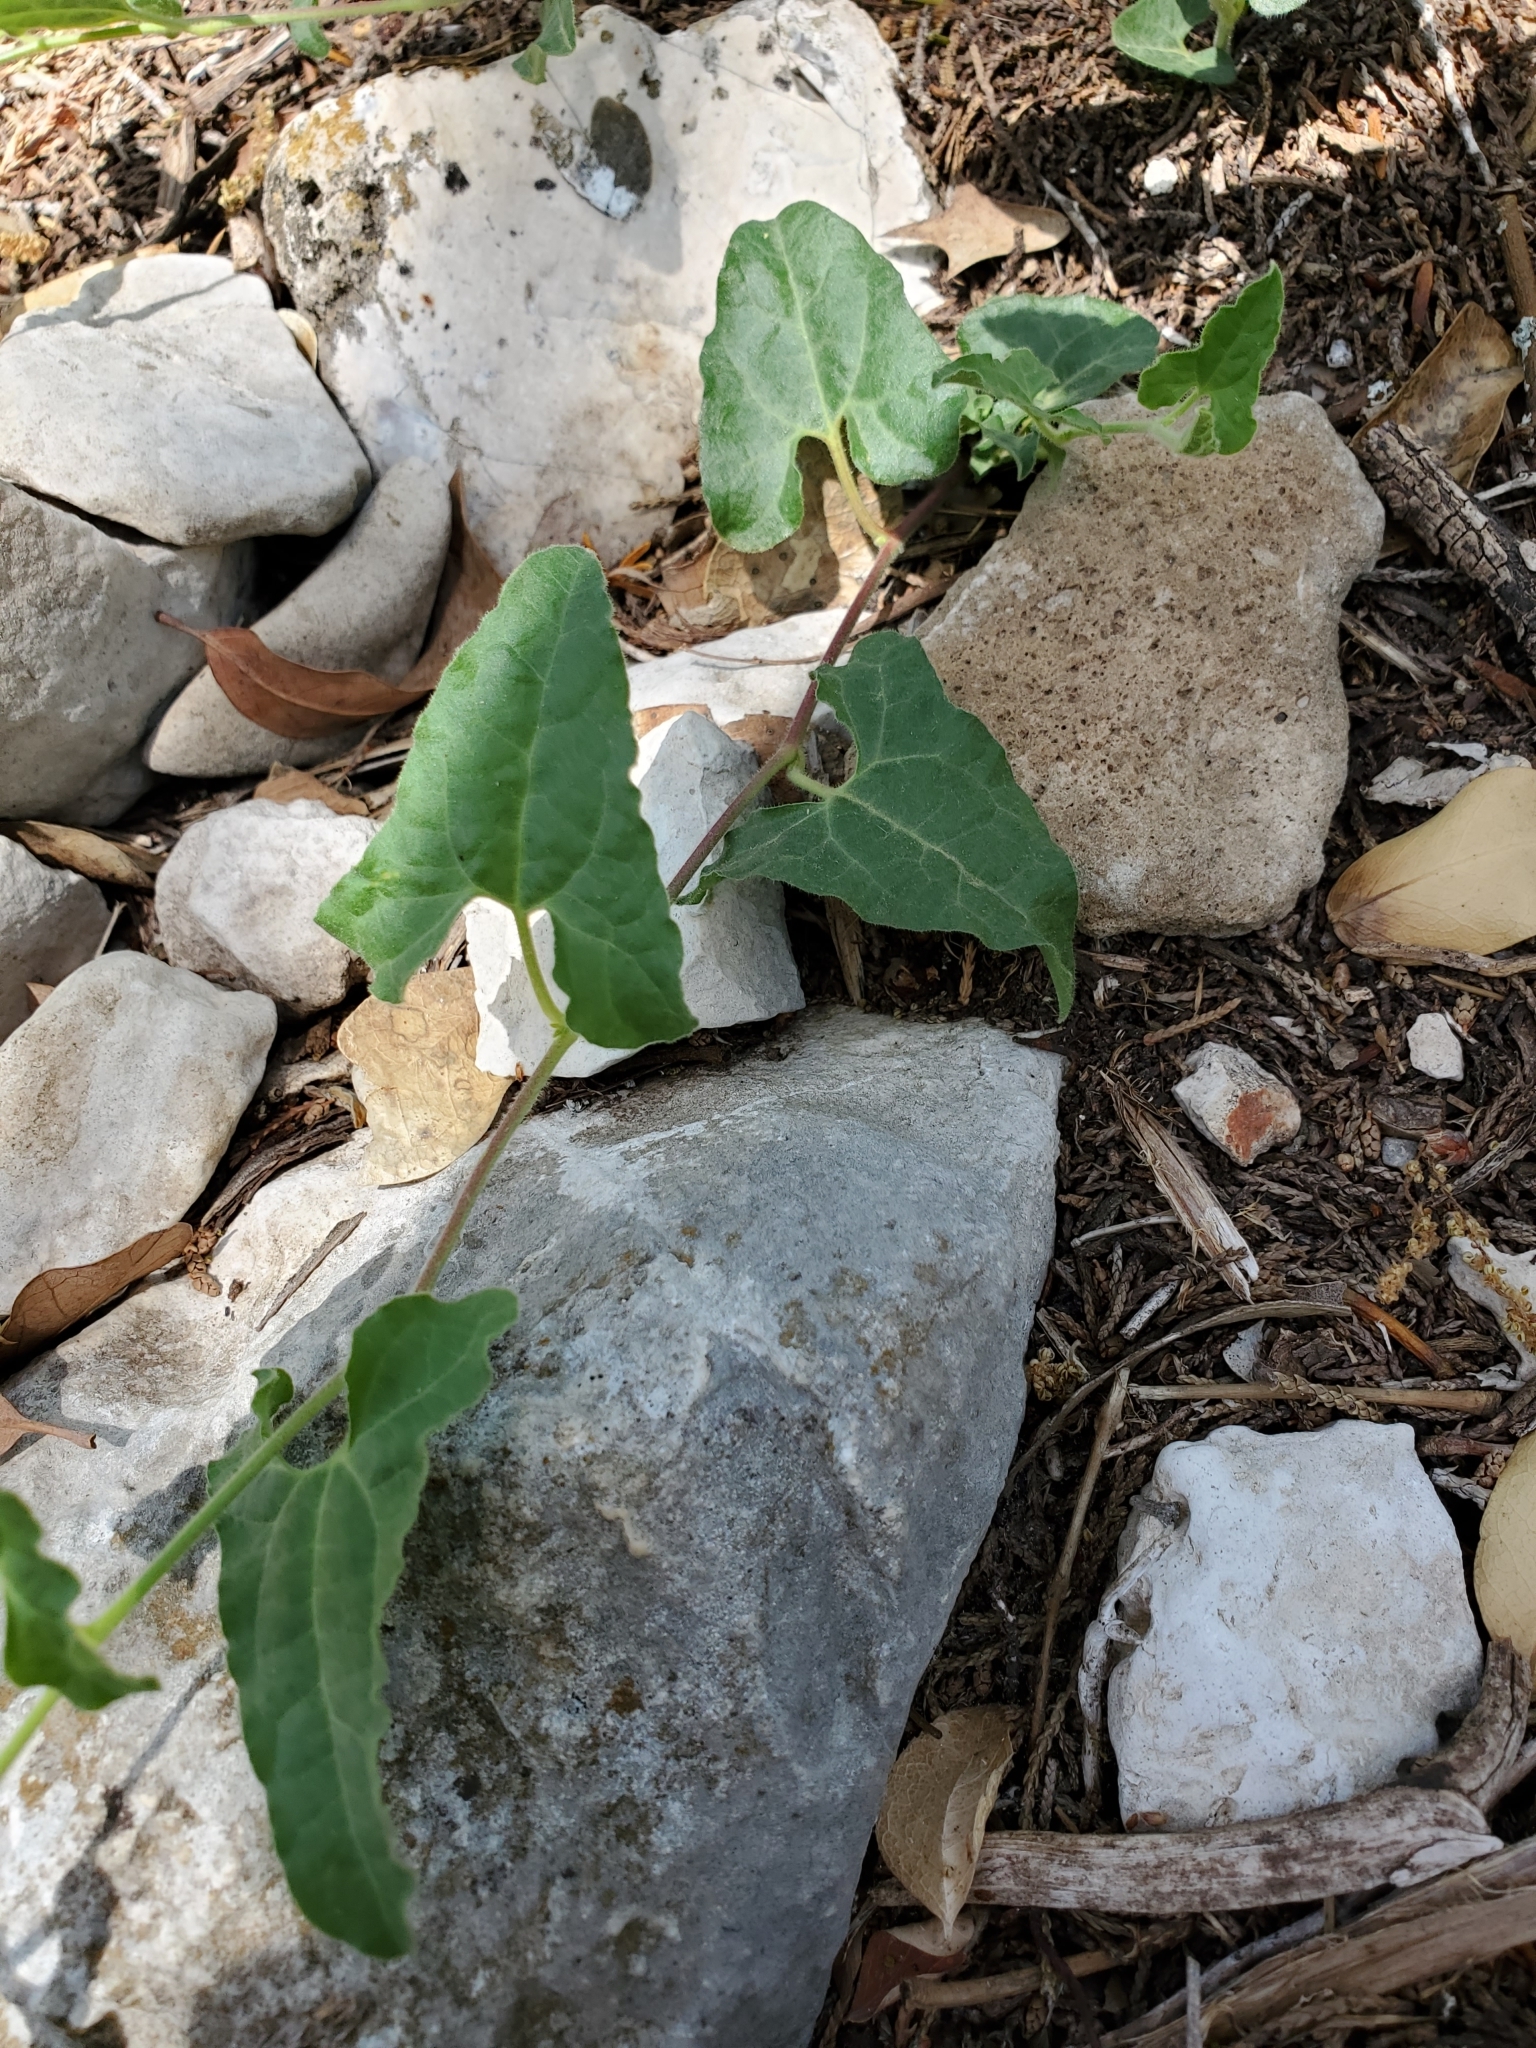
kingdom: Plantae
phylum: Tracheophyta
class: Magnoliopsida
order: Piperales
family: Aristolochiaceae
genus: Aristolochia
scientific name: Aristolochia coryi
